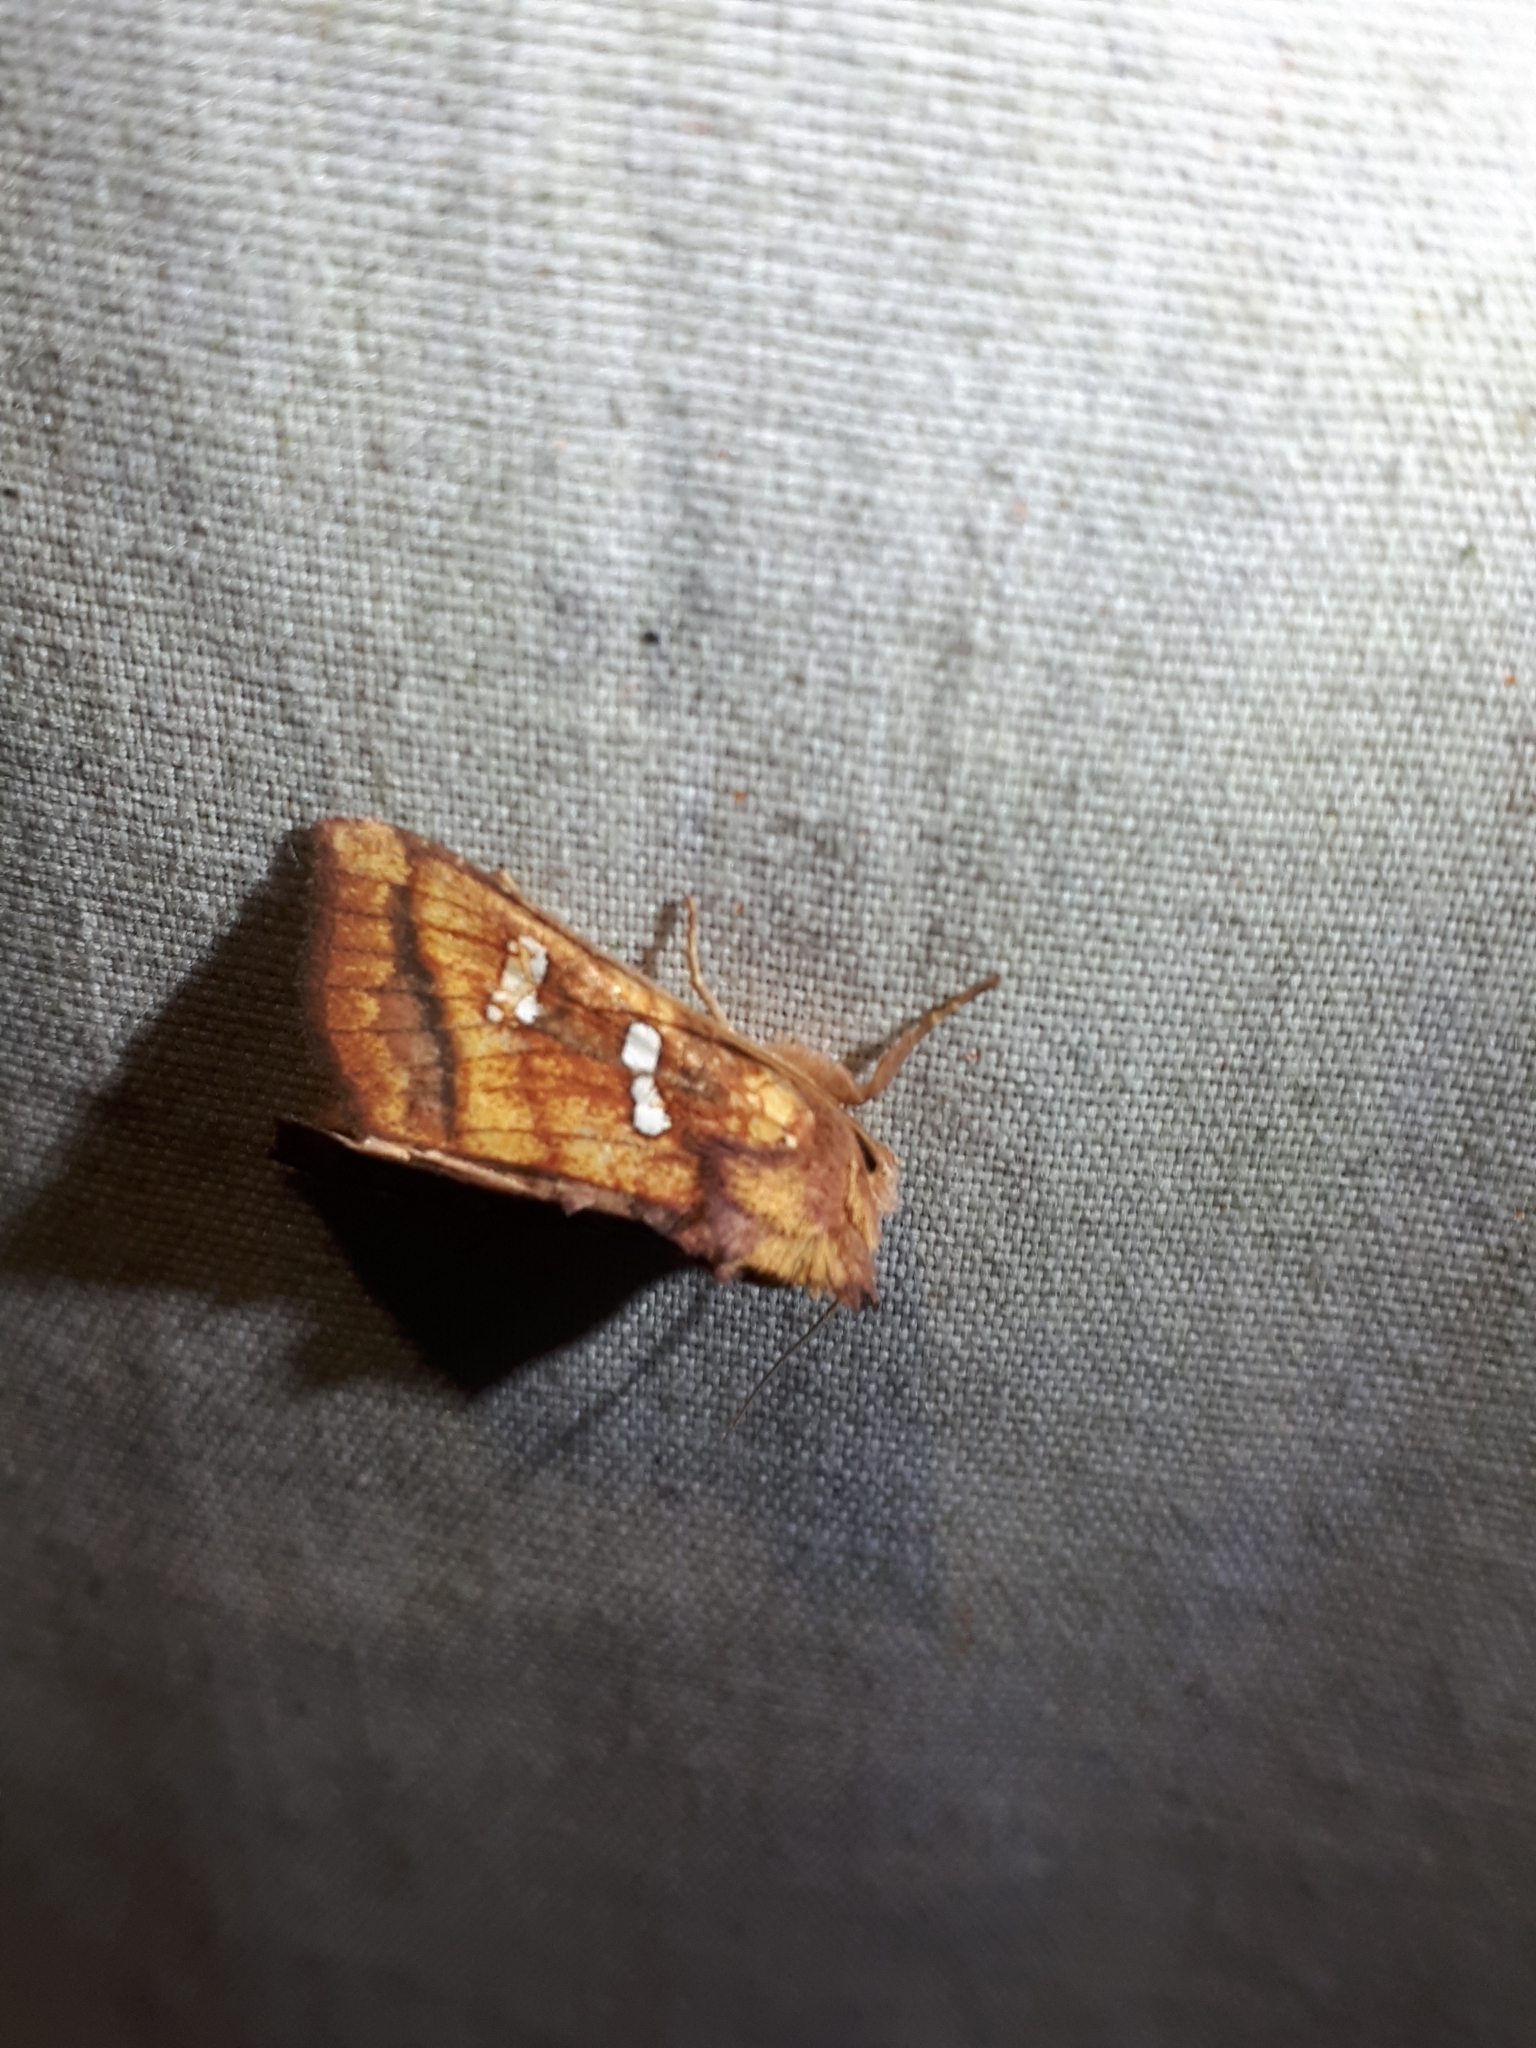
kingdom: Animalia
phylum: Arthropoda
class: Insecta
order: Lepidoptera
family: Noctuidae
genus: Papaipema
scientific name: Papaipema pterisii
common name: Bracken borer moth
